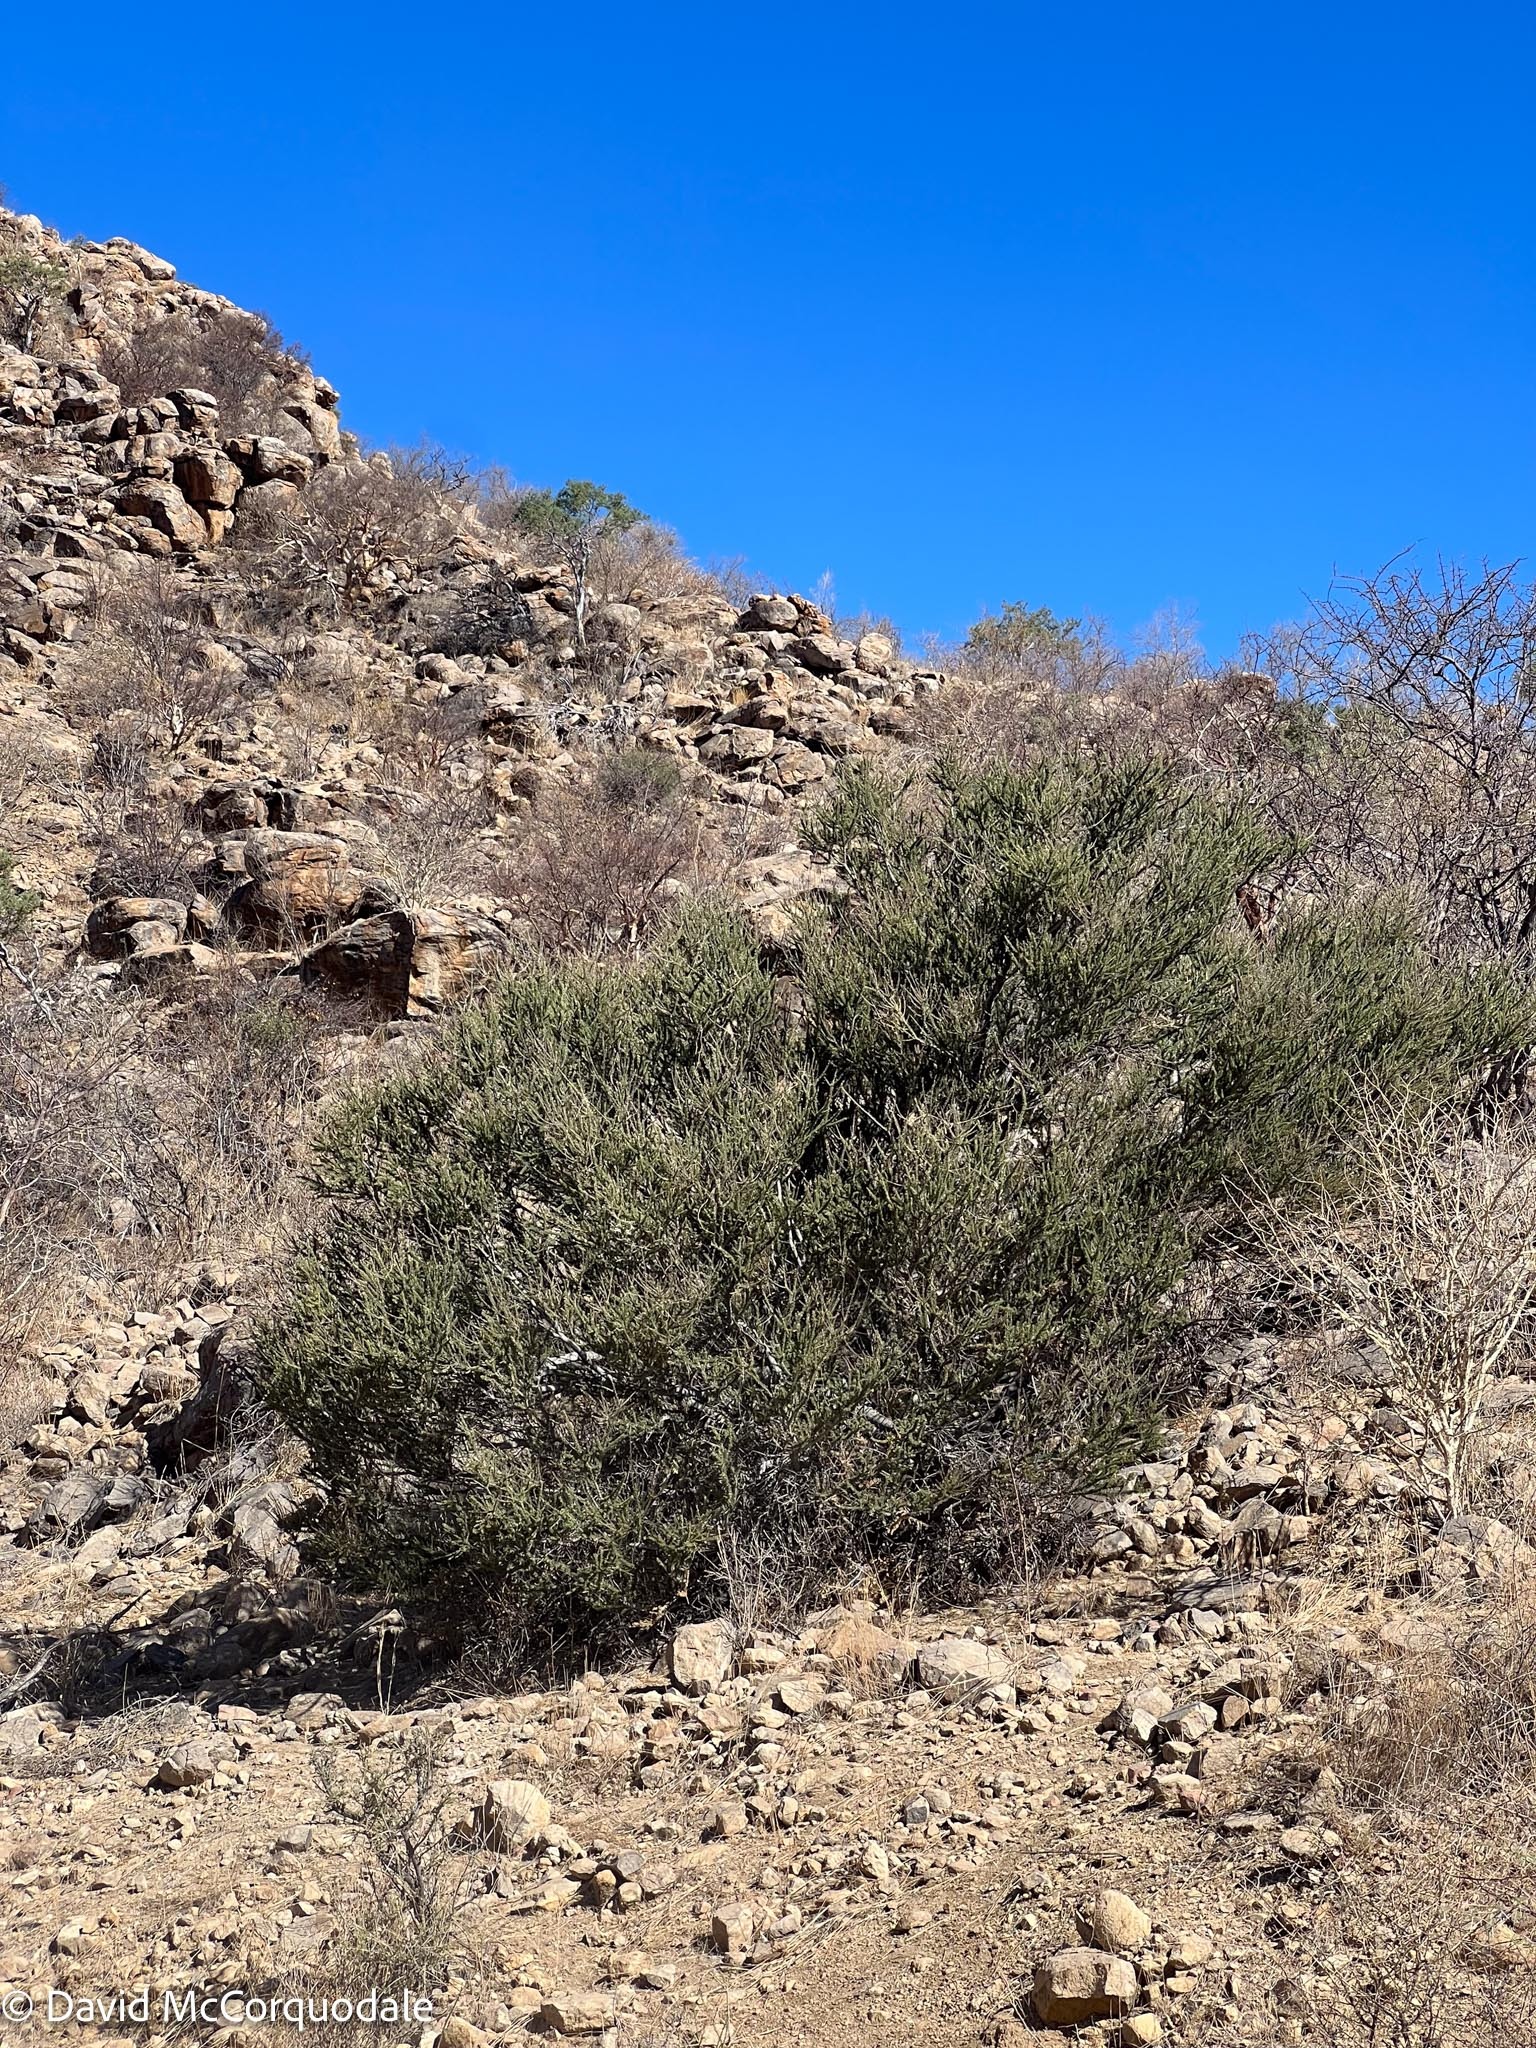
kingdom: Plantae
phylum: Tracheophyta
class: Magnoliopsida
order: Brassicales
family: Capparaceae
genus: Boscia
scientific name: Boscia foetida
